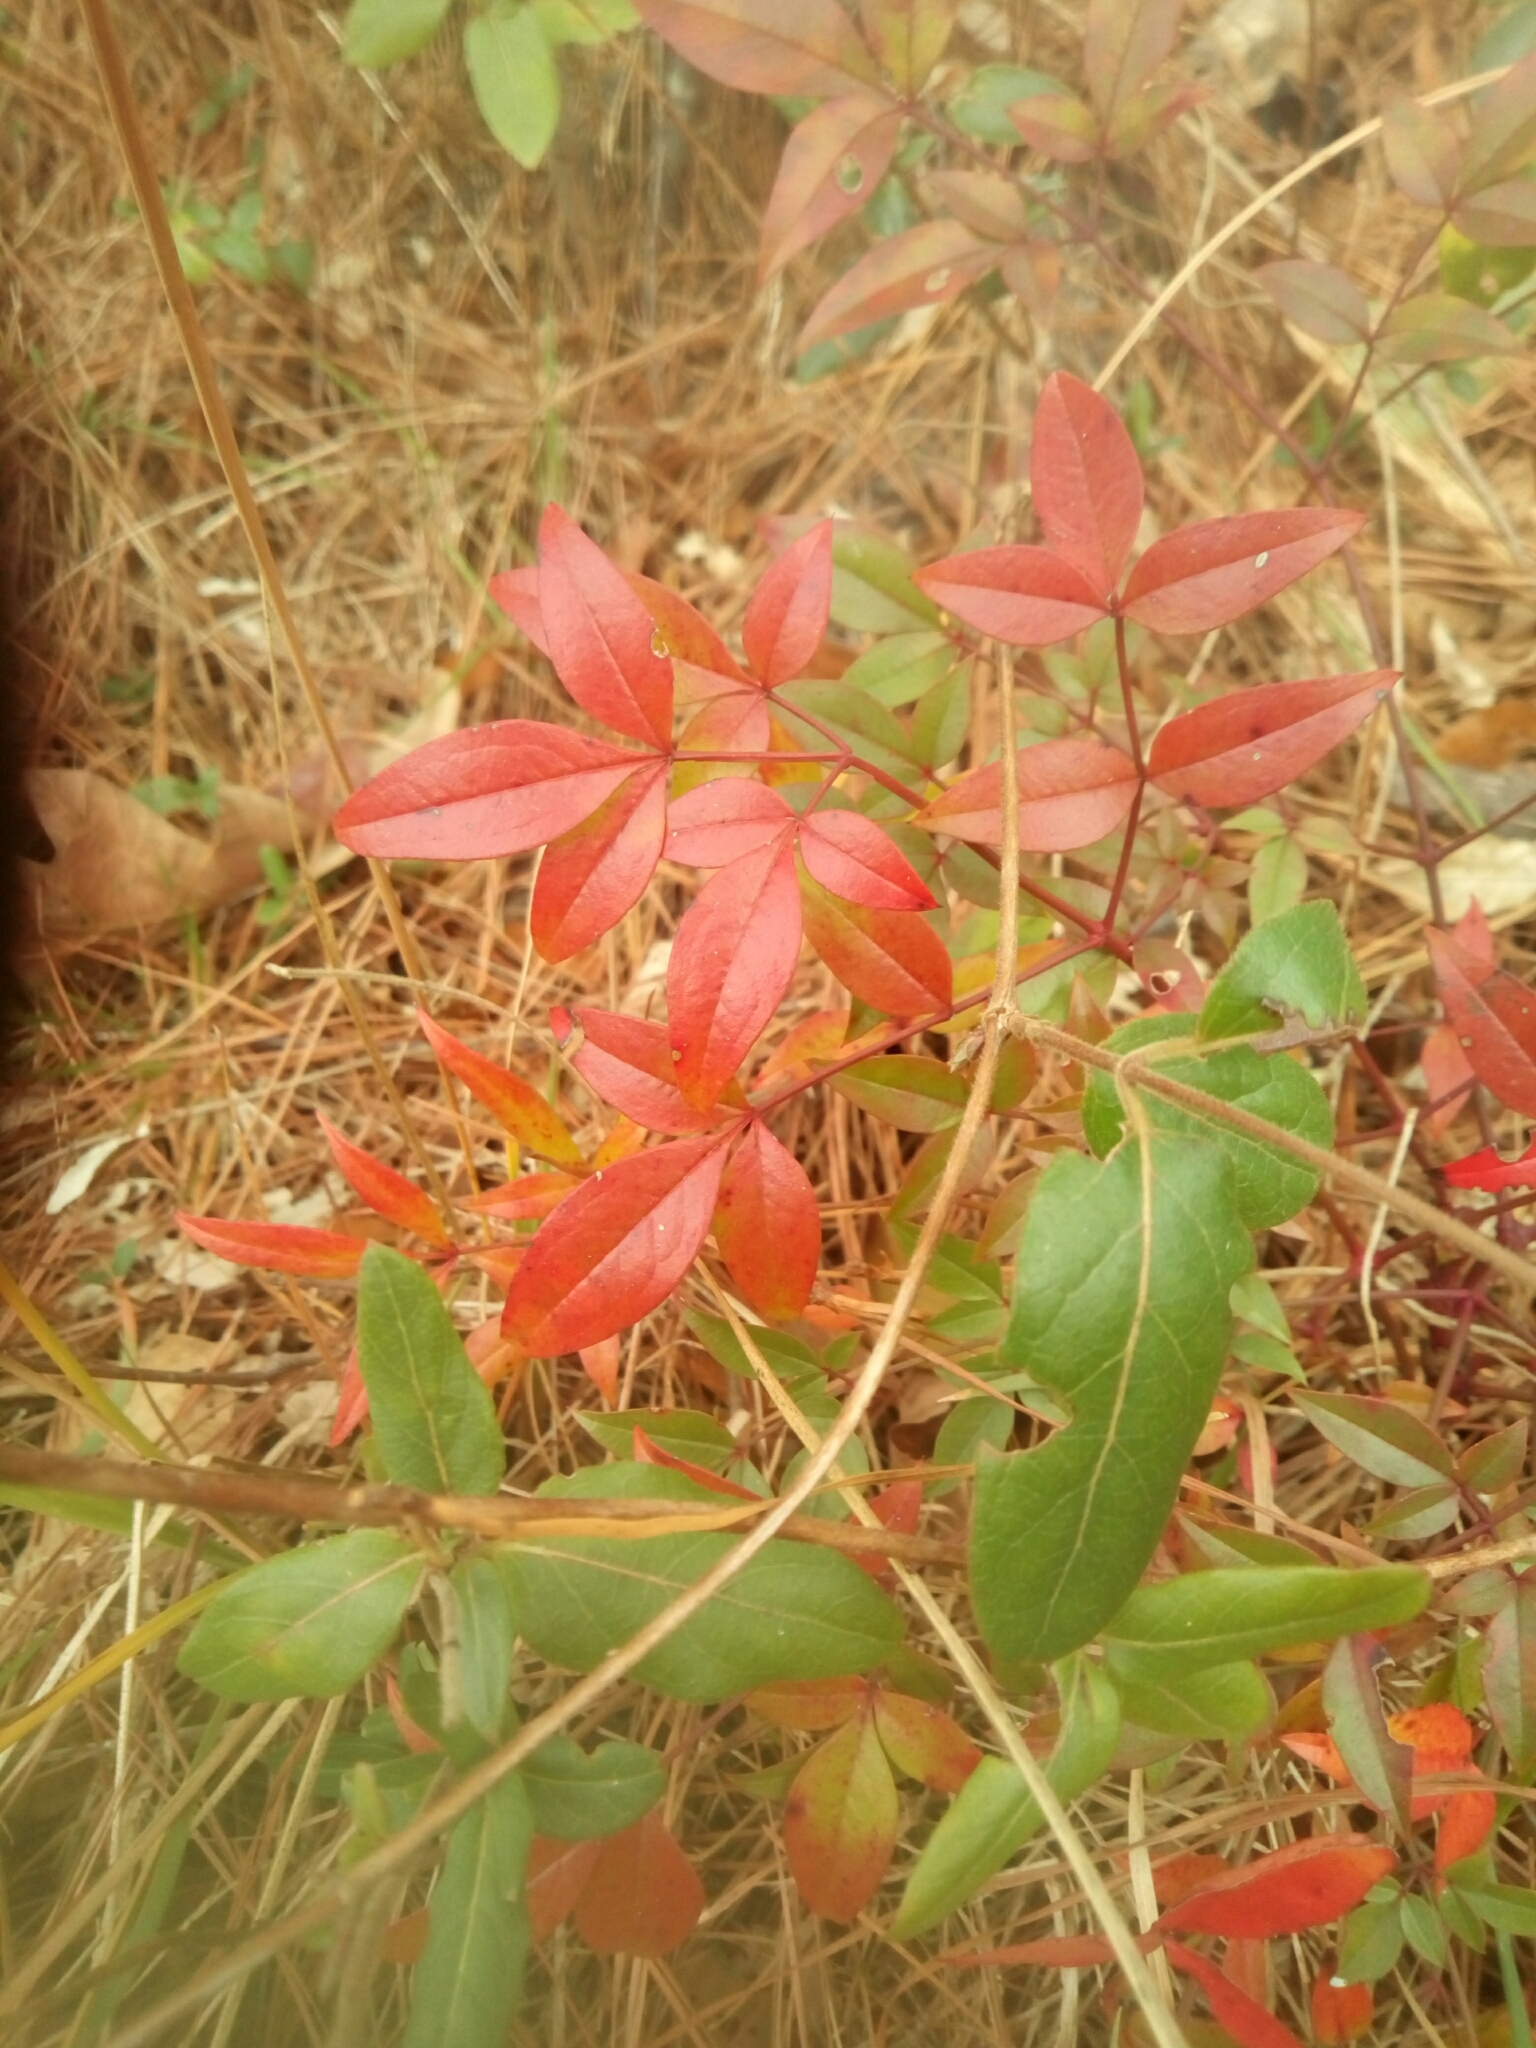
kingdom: Plantae
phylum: Tracheophyta
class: Magnoliopsida
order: Ranunculales
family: Berberidaceae
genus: Nandina
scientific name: Nandina domestica
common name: Sacred bamboo
